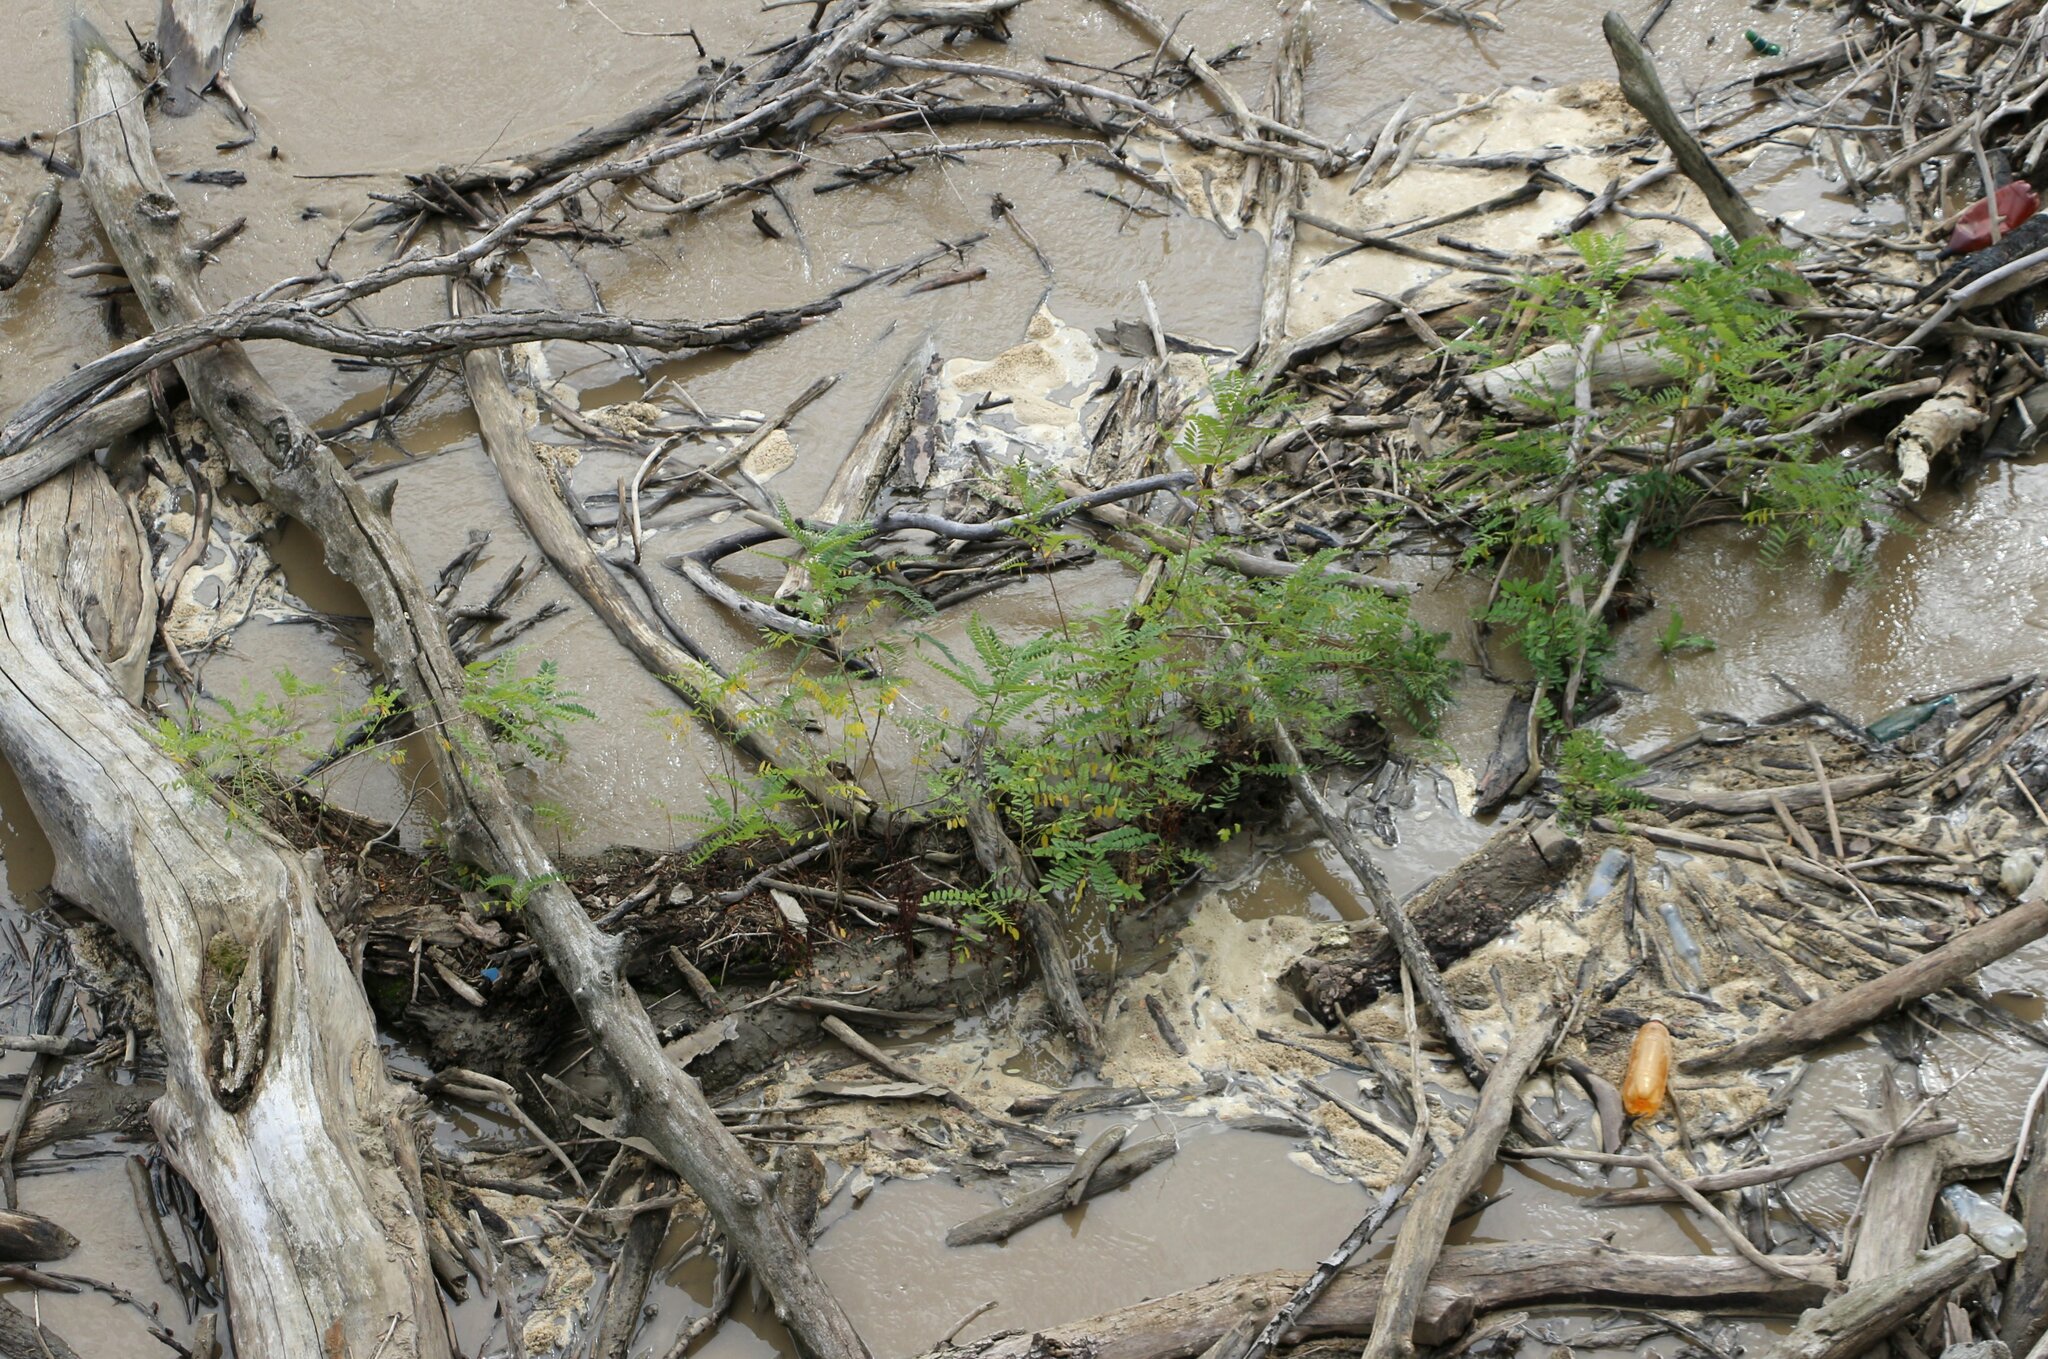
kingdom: Plantae
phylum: Tracheophyta
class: Magnoliopsida
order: Fabales
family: Fabaceae
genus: Amorpha
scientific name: Amorpha fruticosa
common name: False indigo
